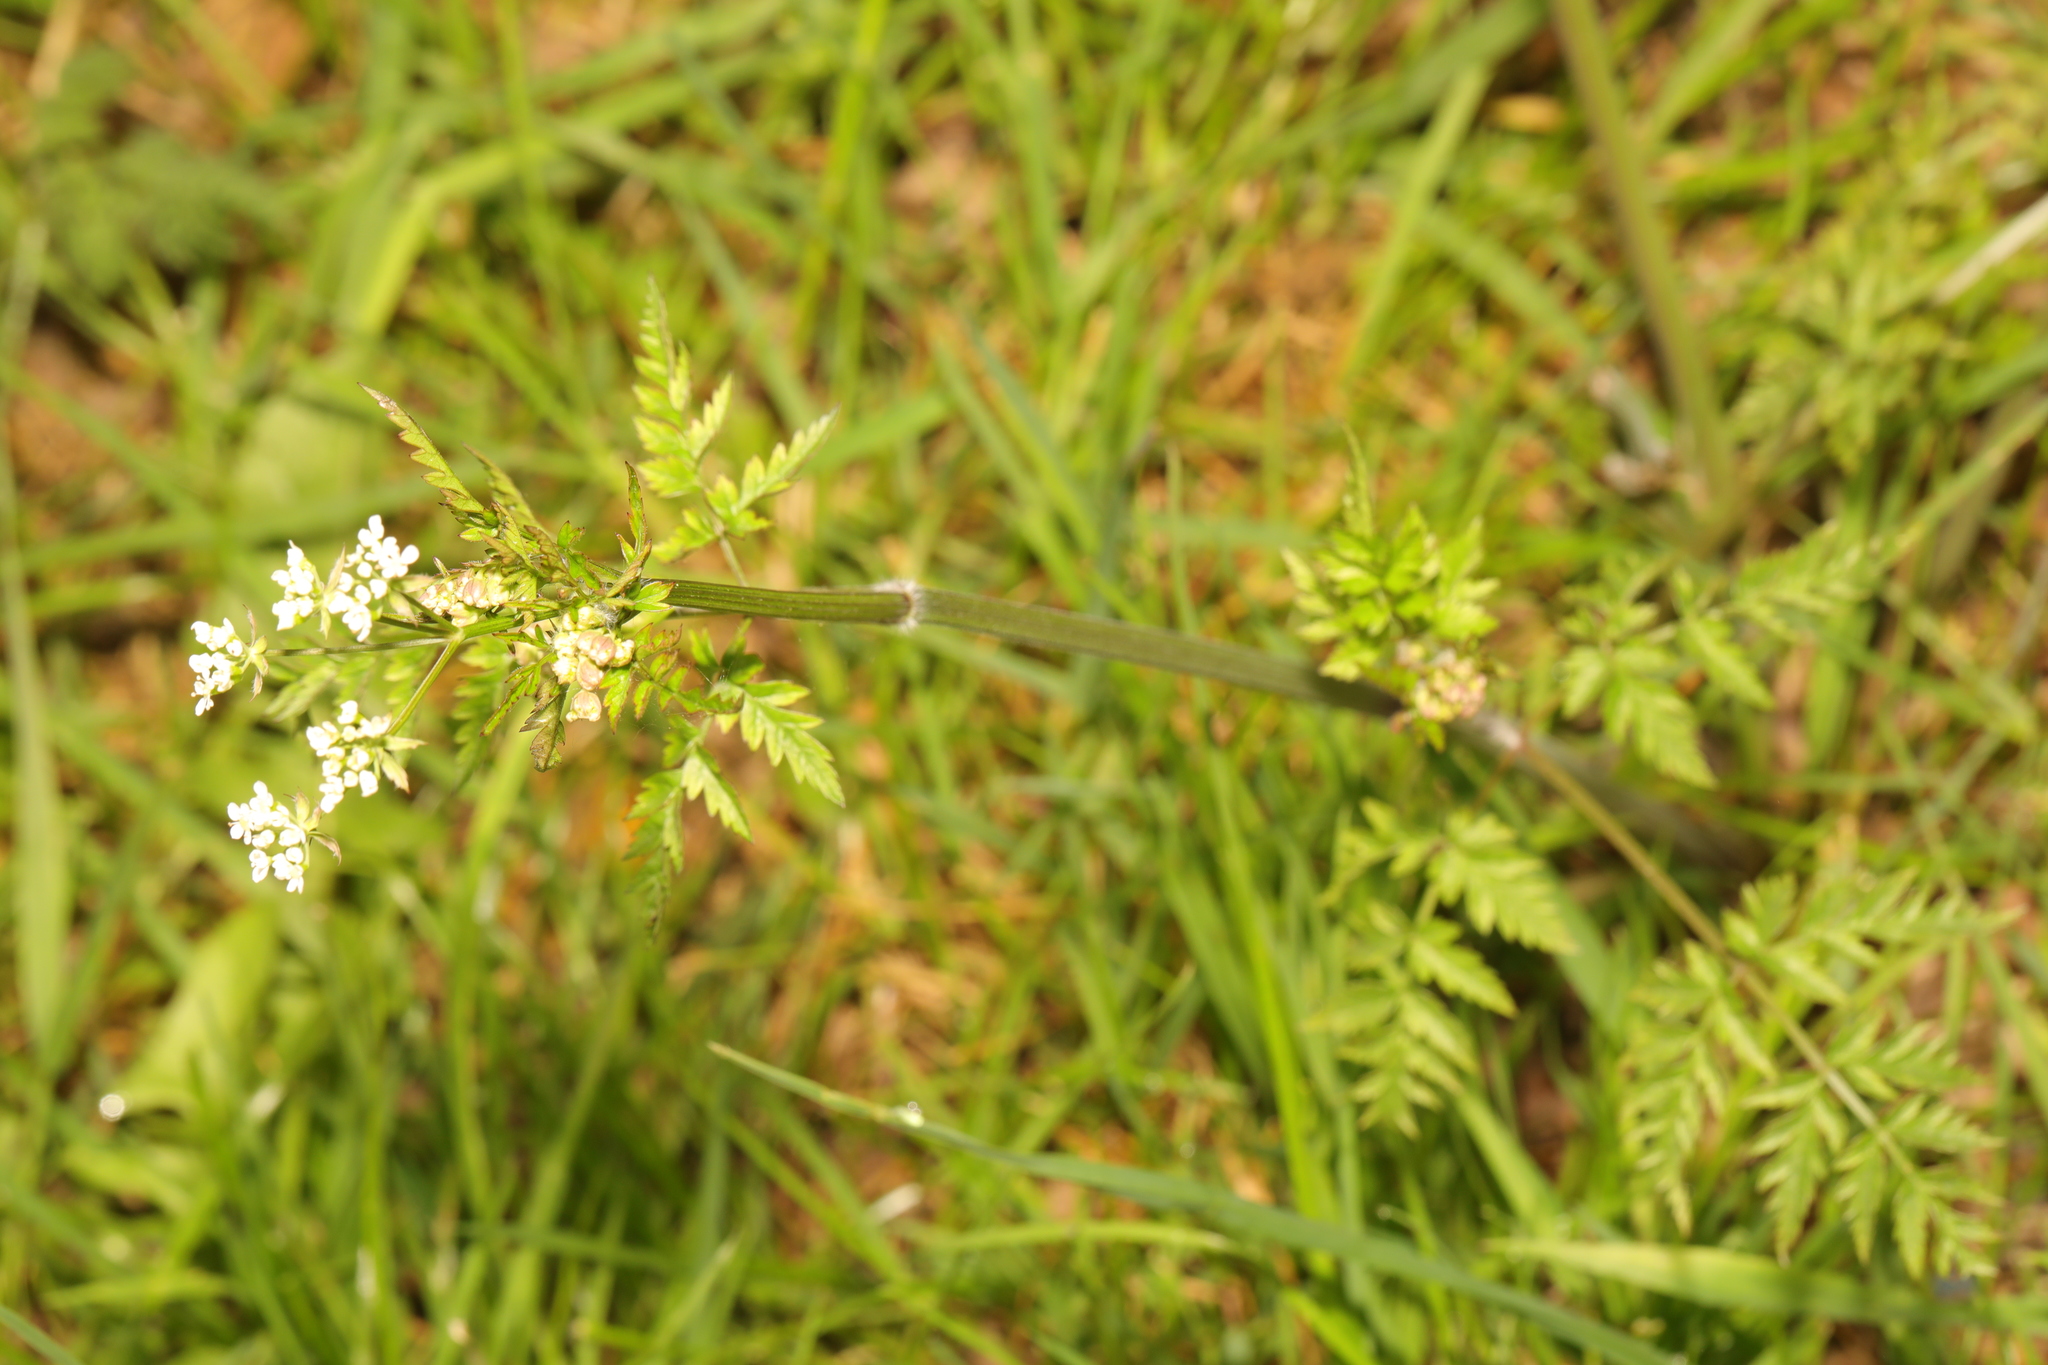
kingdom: Plantae
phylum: Tracheophyta
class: Magnoliopsida
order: Apiales
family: Apiaceae
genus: Anthriscus
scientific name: Anthriscus sylvestris
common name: Cow parsley
